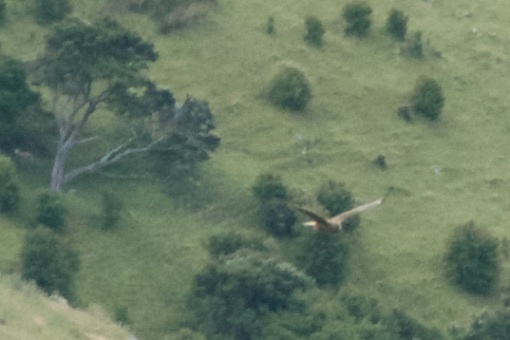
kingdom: Animalia
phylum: Chordata
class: Aves
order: Accipitriformes
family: Accipitridae
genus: Circus
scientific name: Circus approximans
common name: Swamp harrier
